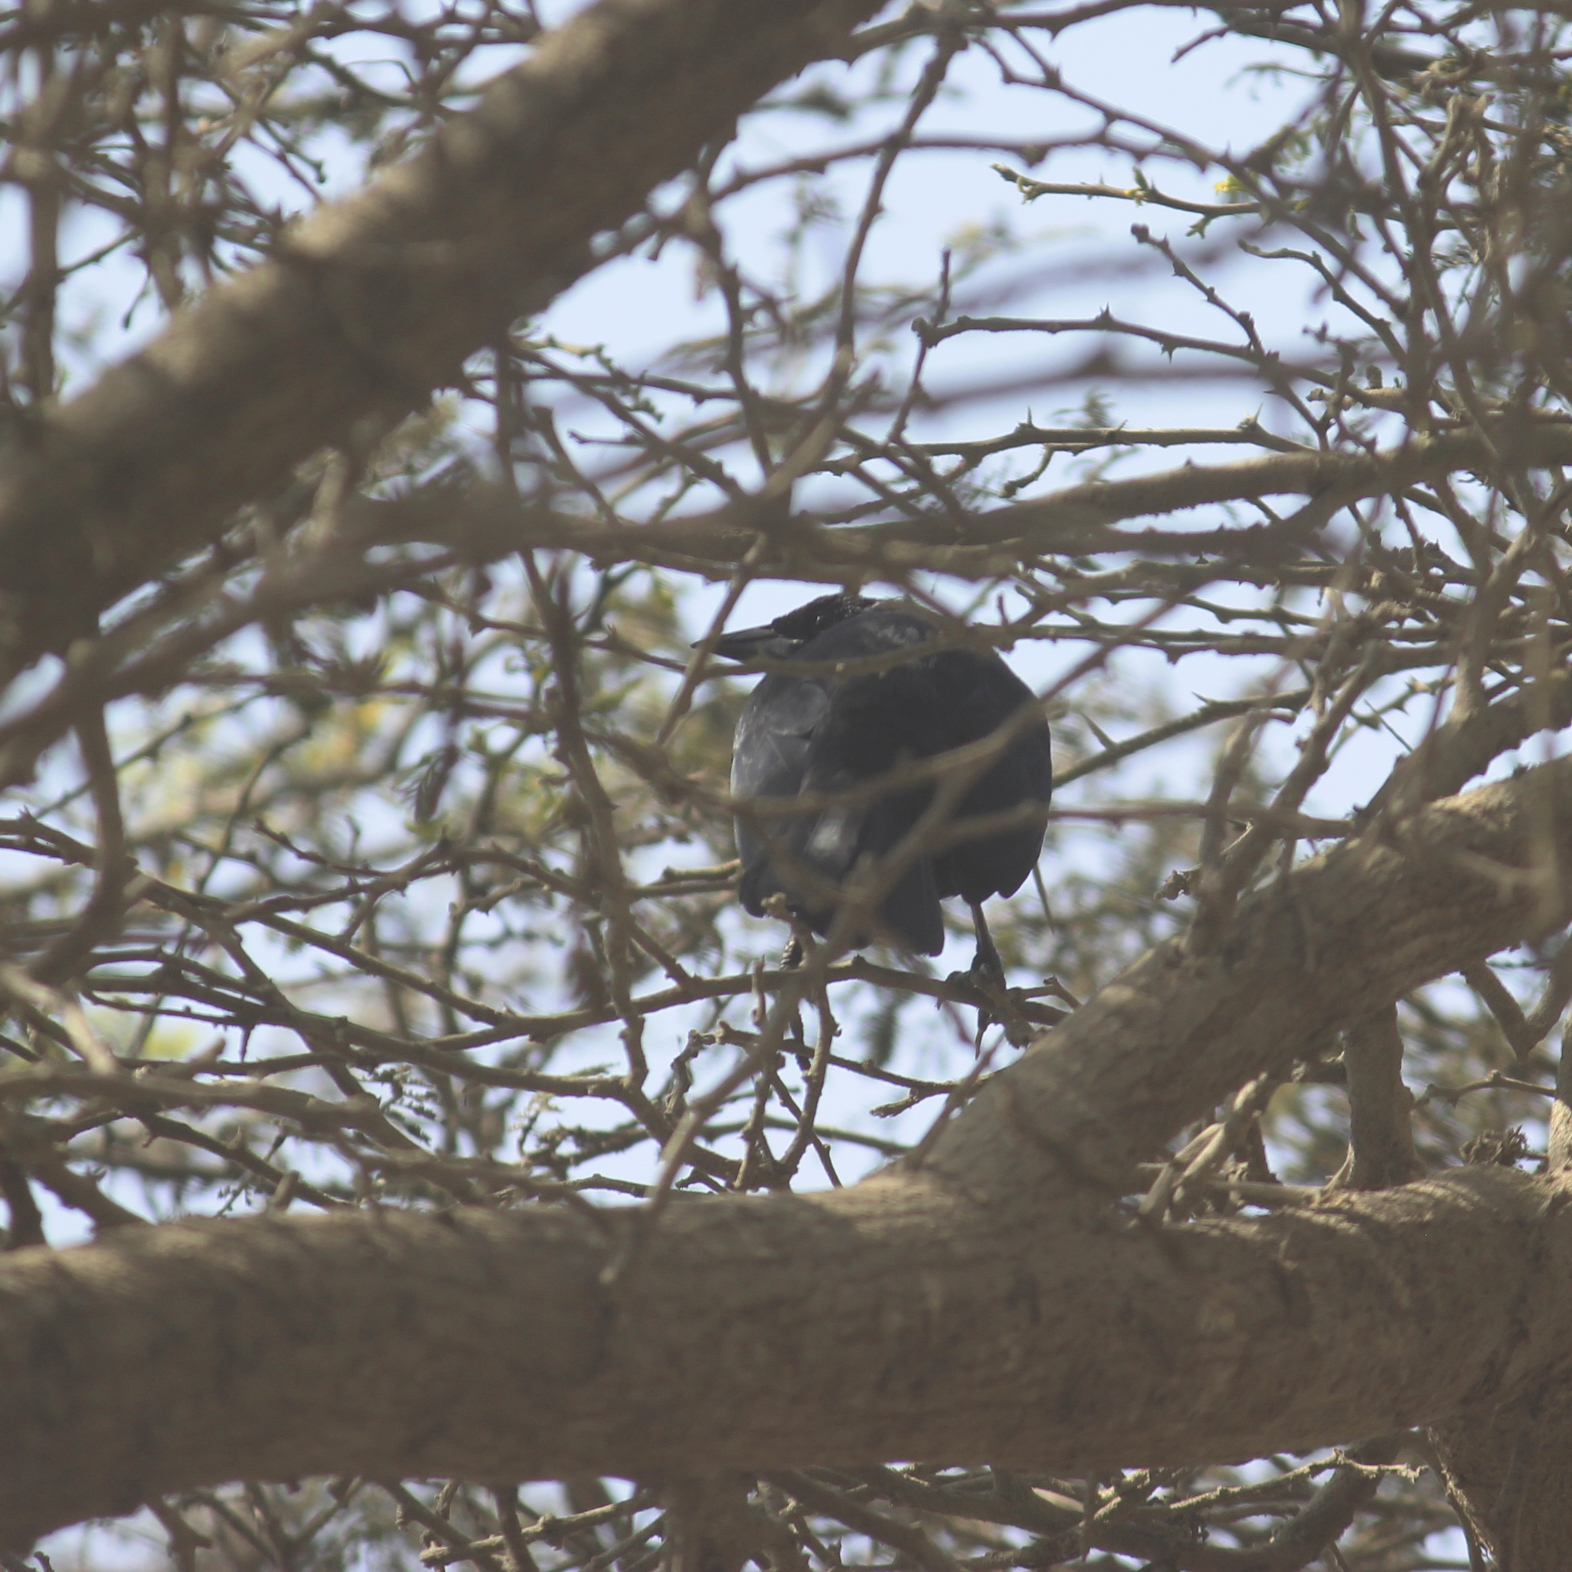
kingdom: Animalia
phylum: Chordata
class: Aves
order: Passeriformes
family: Icteridae
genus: Dives
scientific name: Dives warczewiczi
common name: Scrub blackbird
